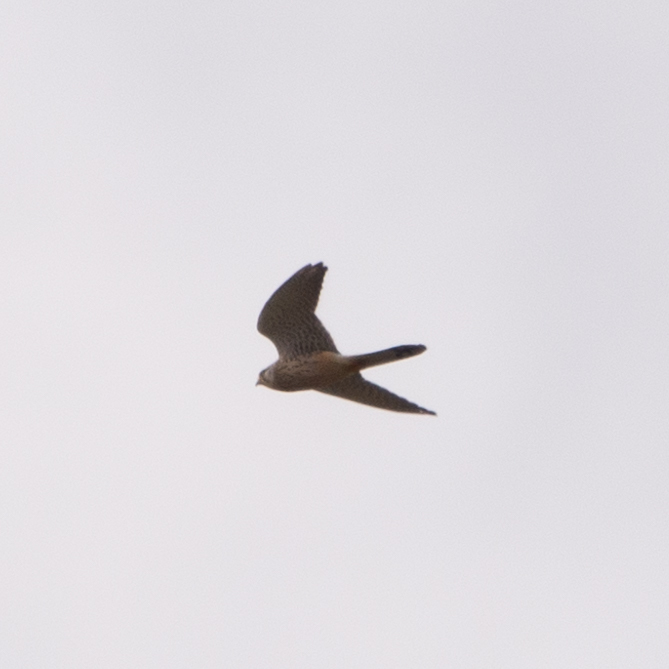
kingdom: Animalia
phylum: Chordata
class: Aves
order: Falconiformes
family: Falconidae
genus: Falco
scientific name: Falco tinnunculus
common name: Common kestrel
